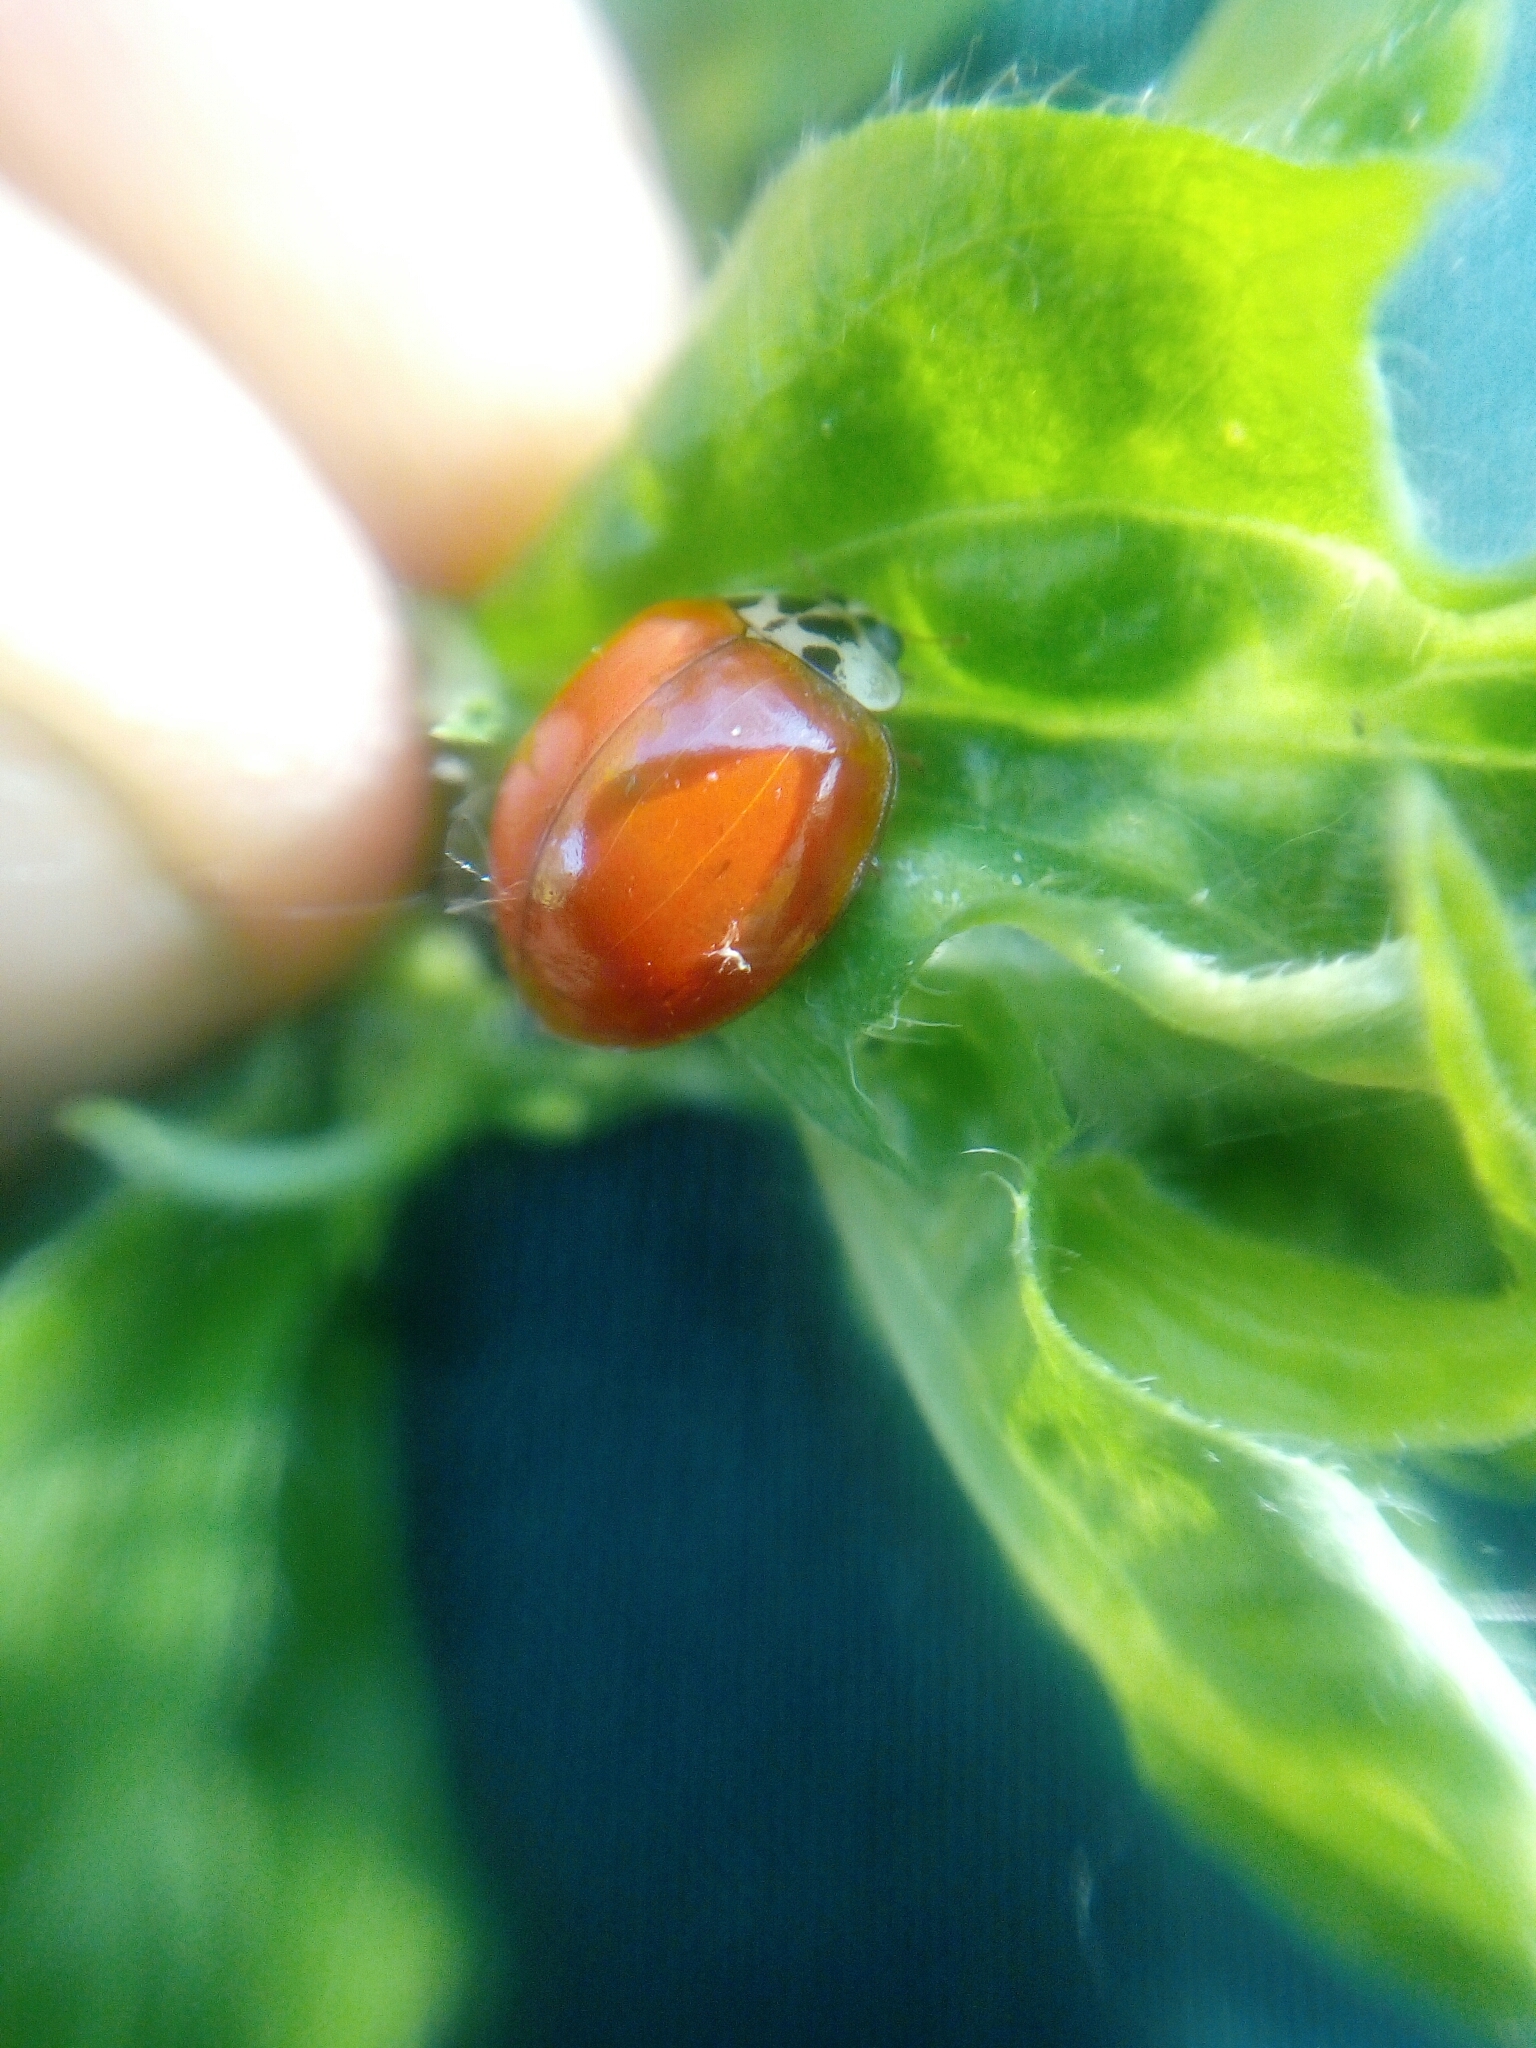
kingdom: Animalia
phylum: Arthropoda
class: Insecta
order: Coleoptera
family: Coccinellidae
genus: Harmonia
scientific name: Harmonia axyridis
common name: Harlequin ladybird
